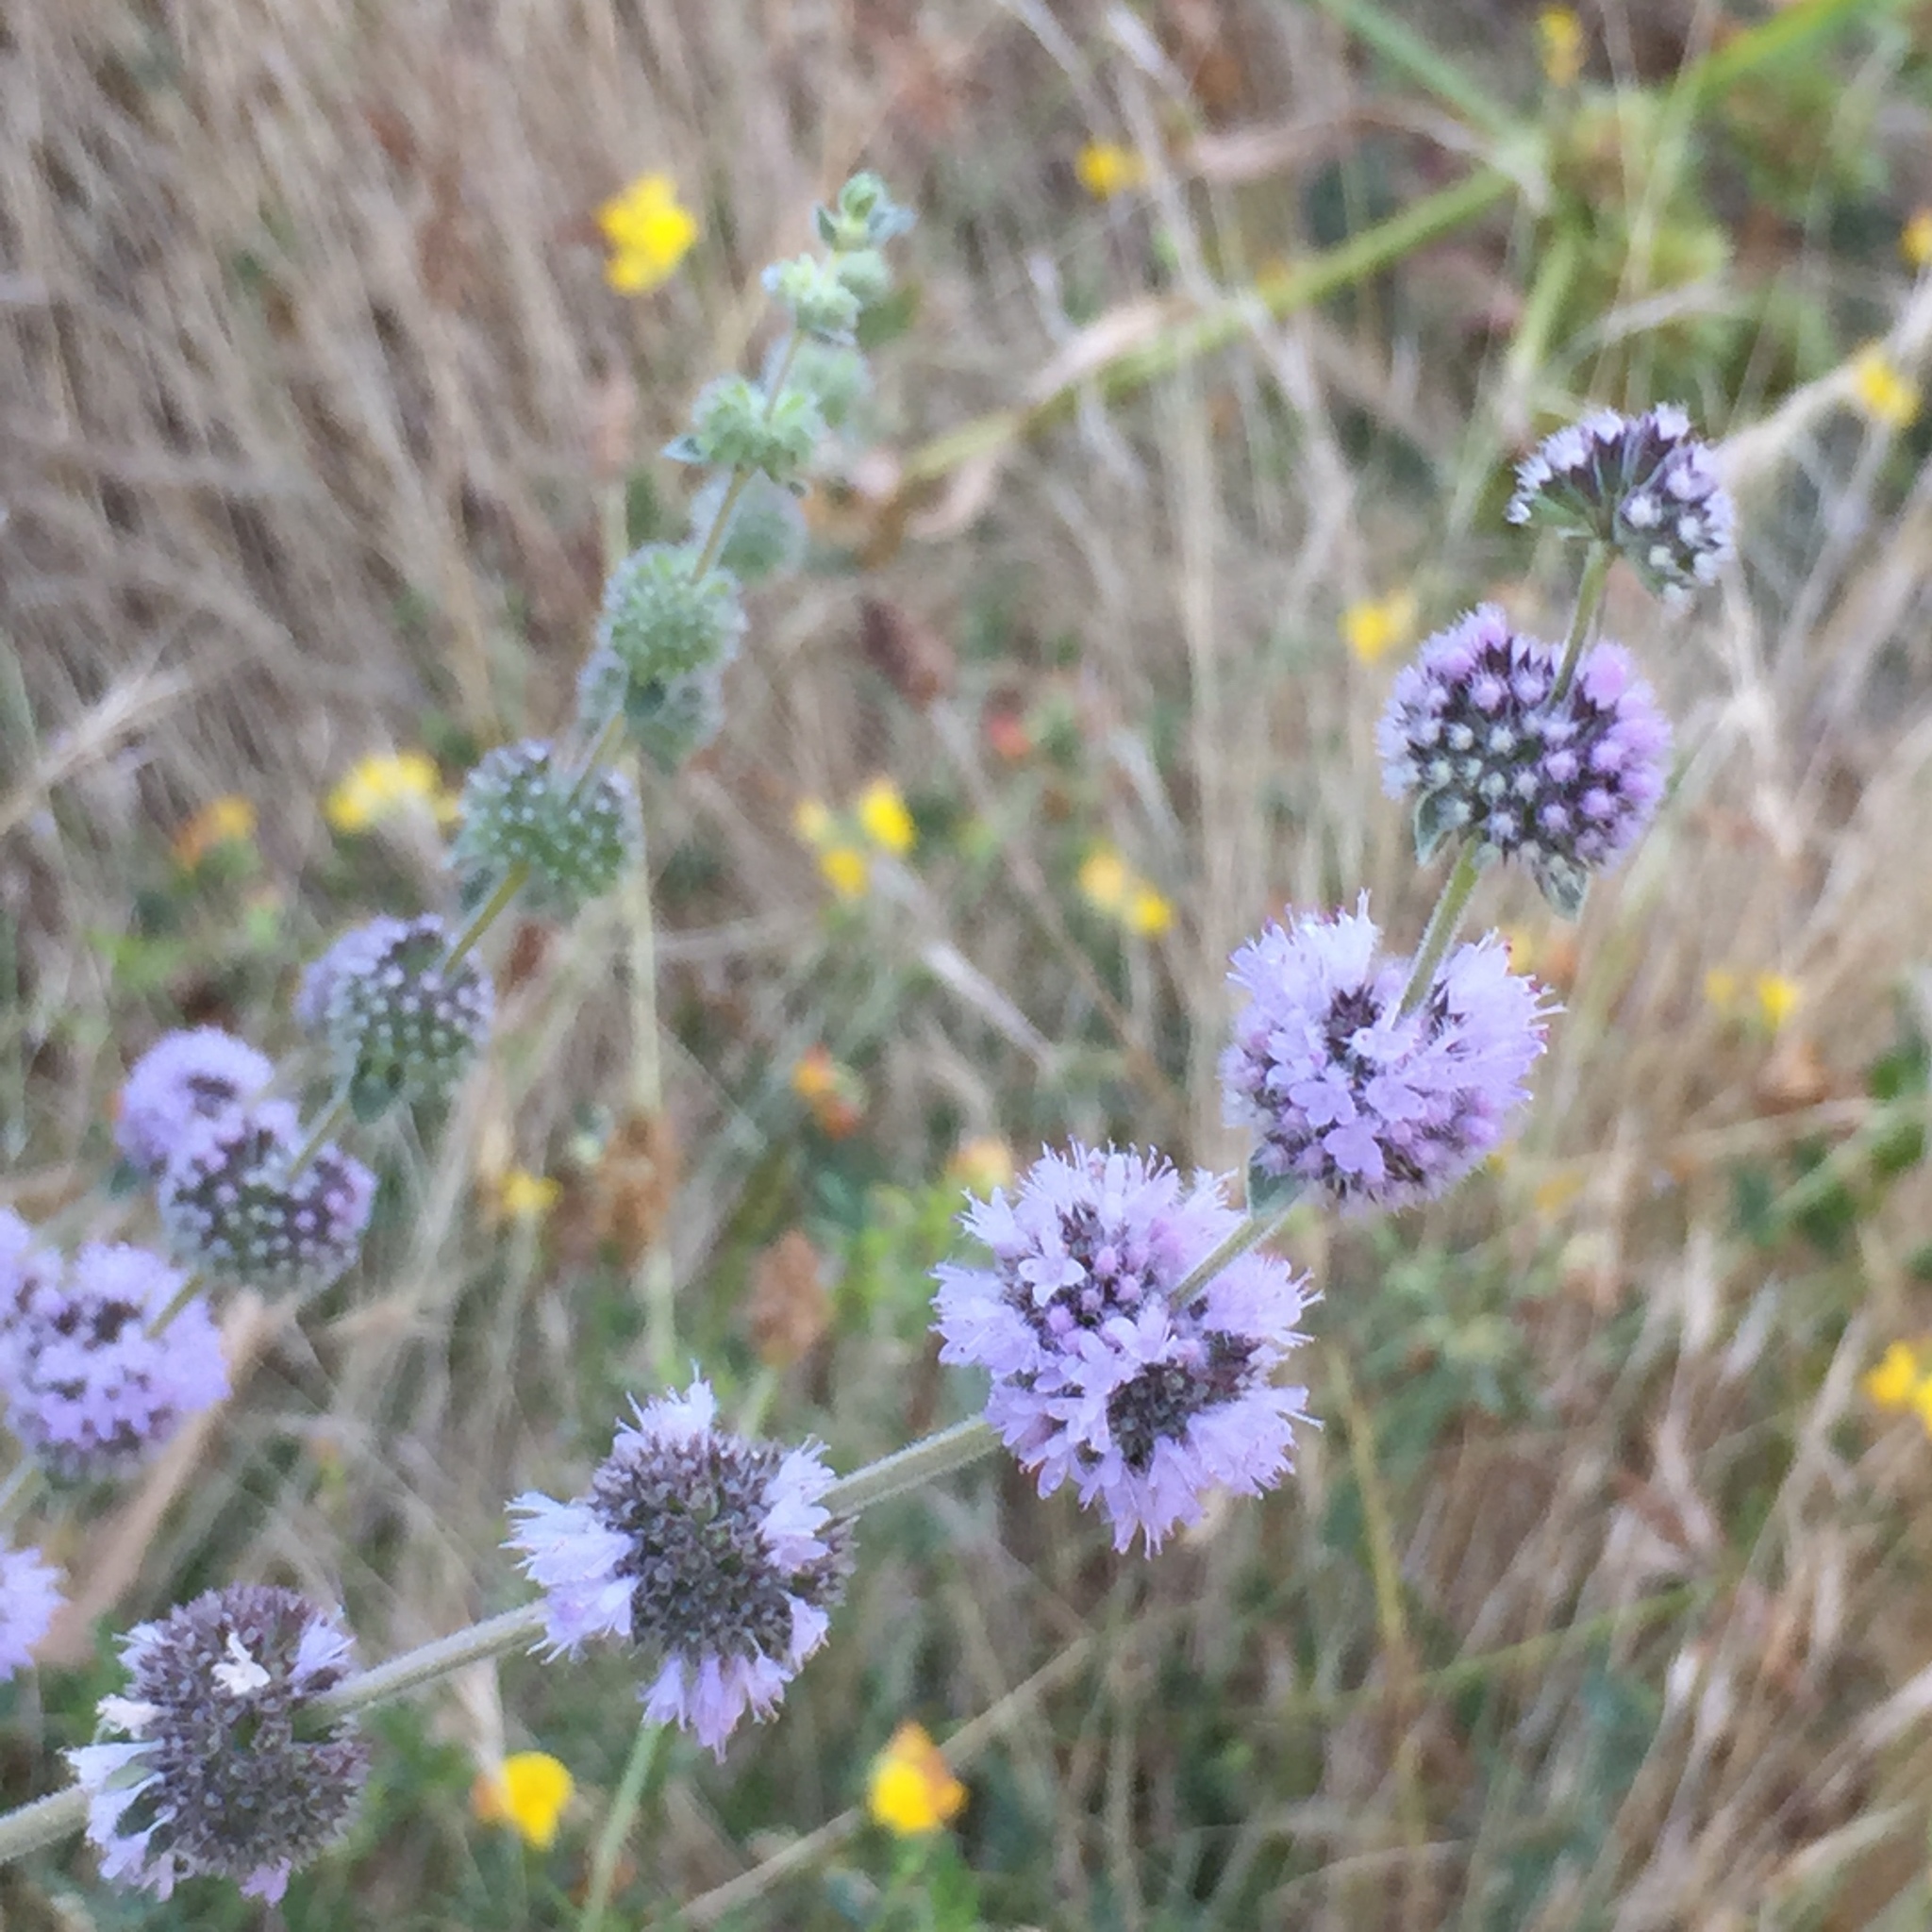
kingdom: Plantae
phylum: Tracheophyta
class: Magnoliopsida
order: Lamiales
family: Lamiaceae
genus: Mentha
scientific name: Mentha pulegium
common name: Pennyroyal
